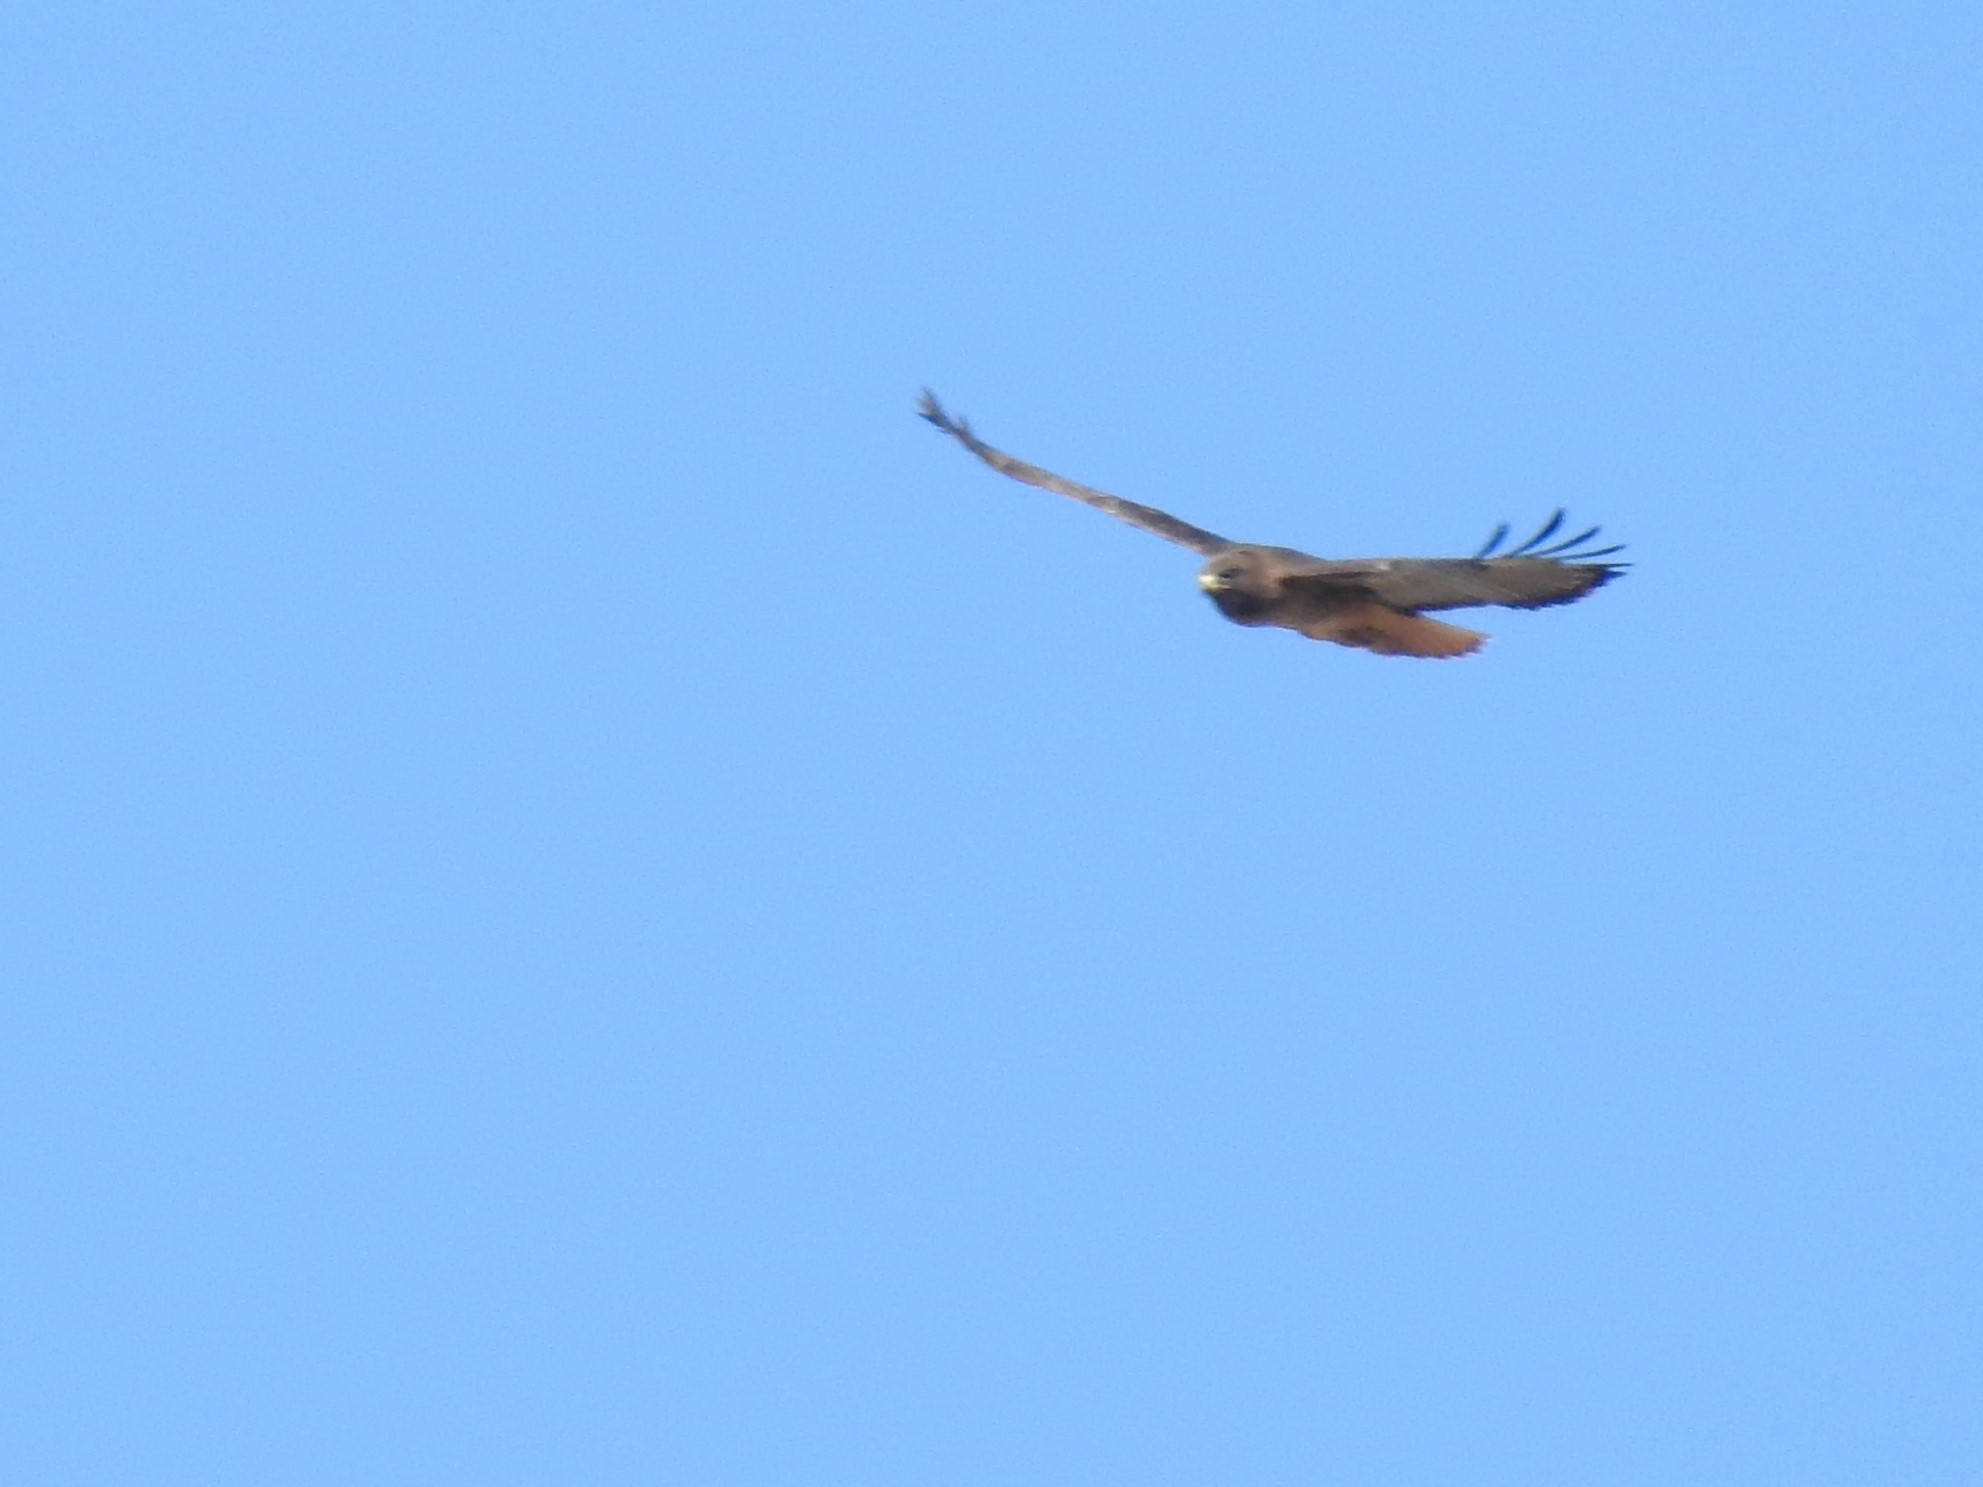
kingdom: Animalia
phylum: Chordata
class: Aves
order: Accipitriformes
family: Accipitridae
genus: Buteo
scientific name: Buteo jamaicensis
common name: Red-tailed hawk
